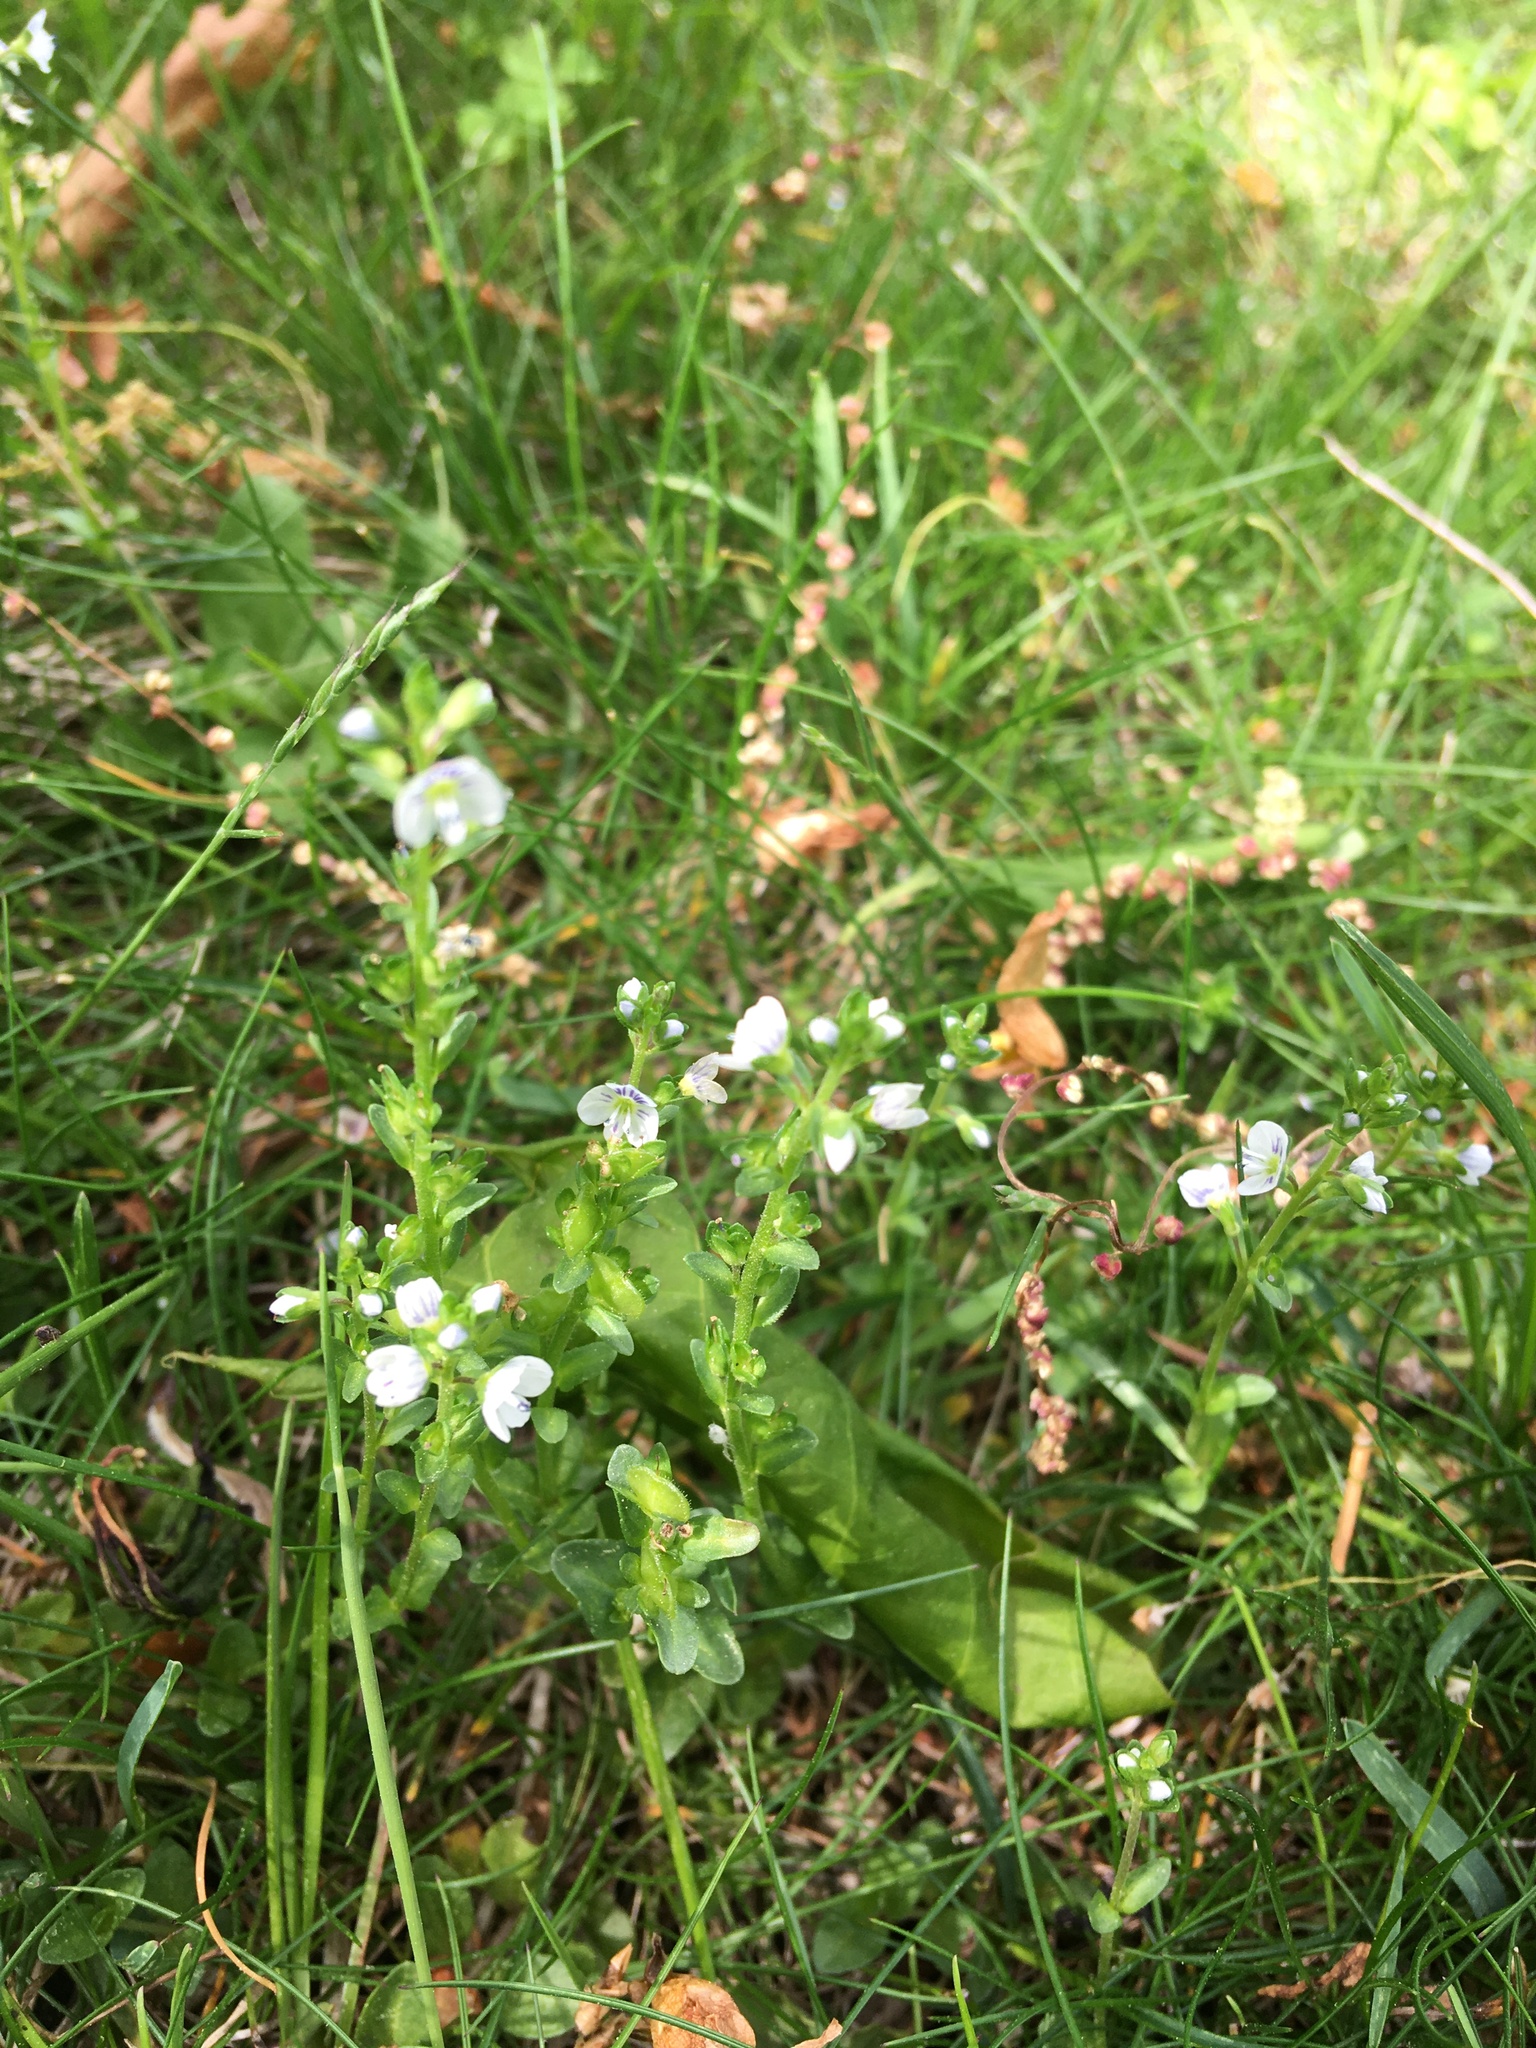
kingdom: Plantae
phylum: Tracheophyta
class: Magnoliopsida
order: Lamiales
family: Plantaginaceae
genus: Veronica
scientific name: Veronica serpyllifolia
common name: Thyme-leaved speedwell
